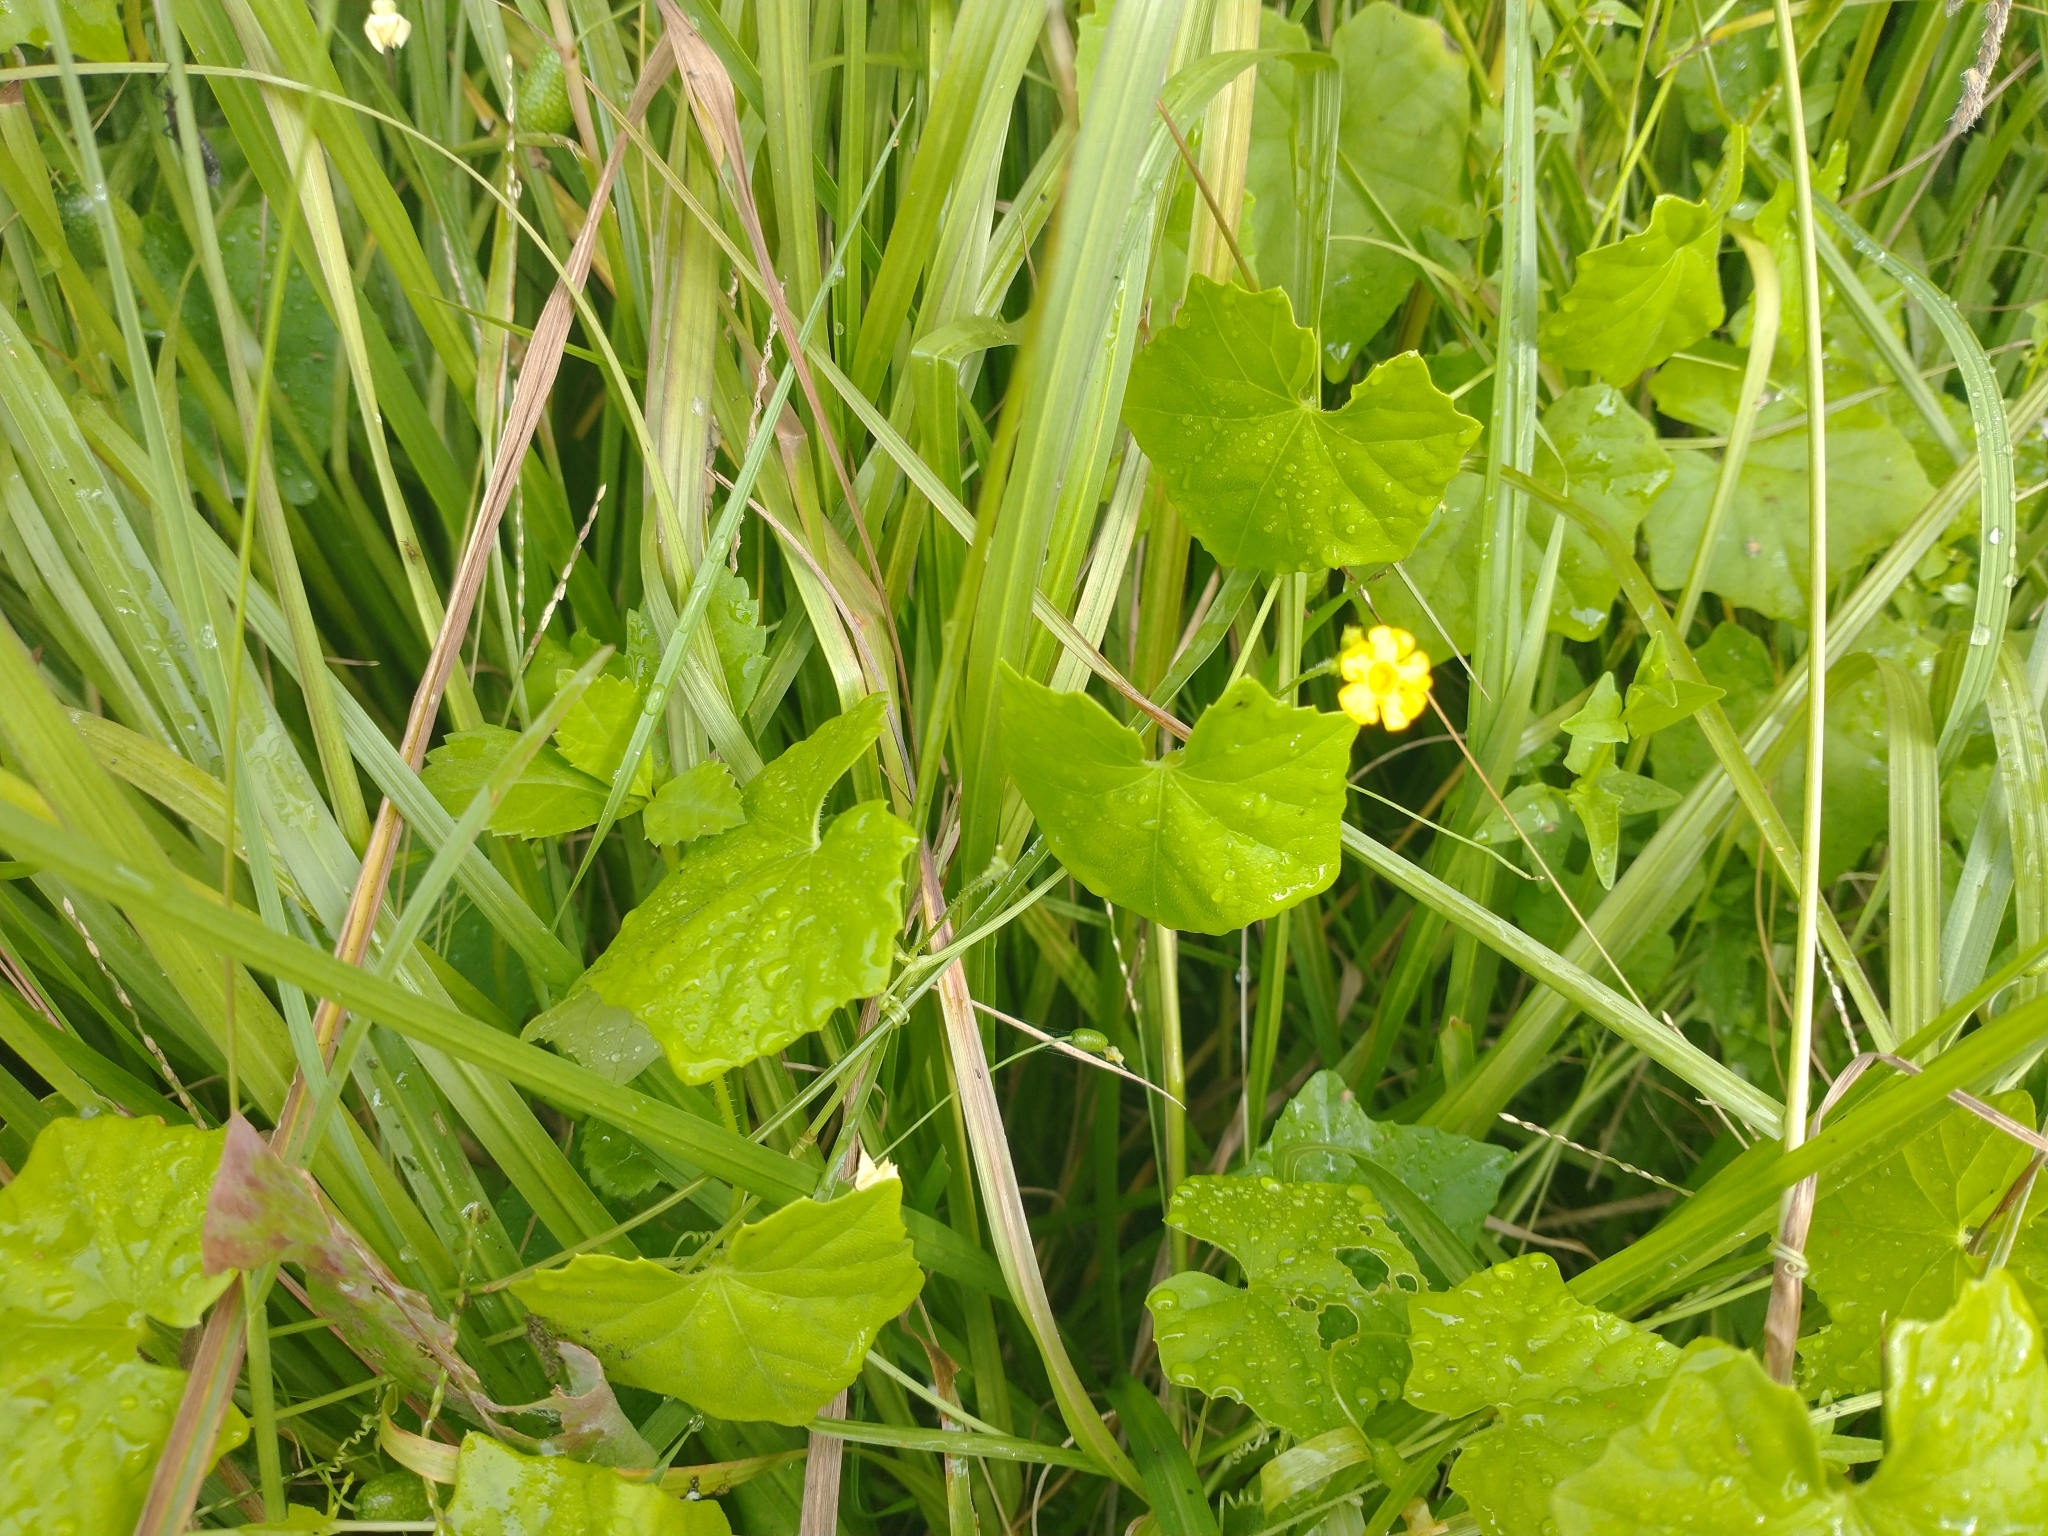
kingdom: Plantae
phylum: Tracheophyta
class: Magnoliopsida
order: Cucurbitales
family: Cucurbitaceae
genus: Melothria
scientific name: Melothria pendula
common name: Creeping-cucumber
